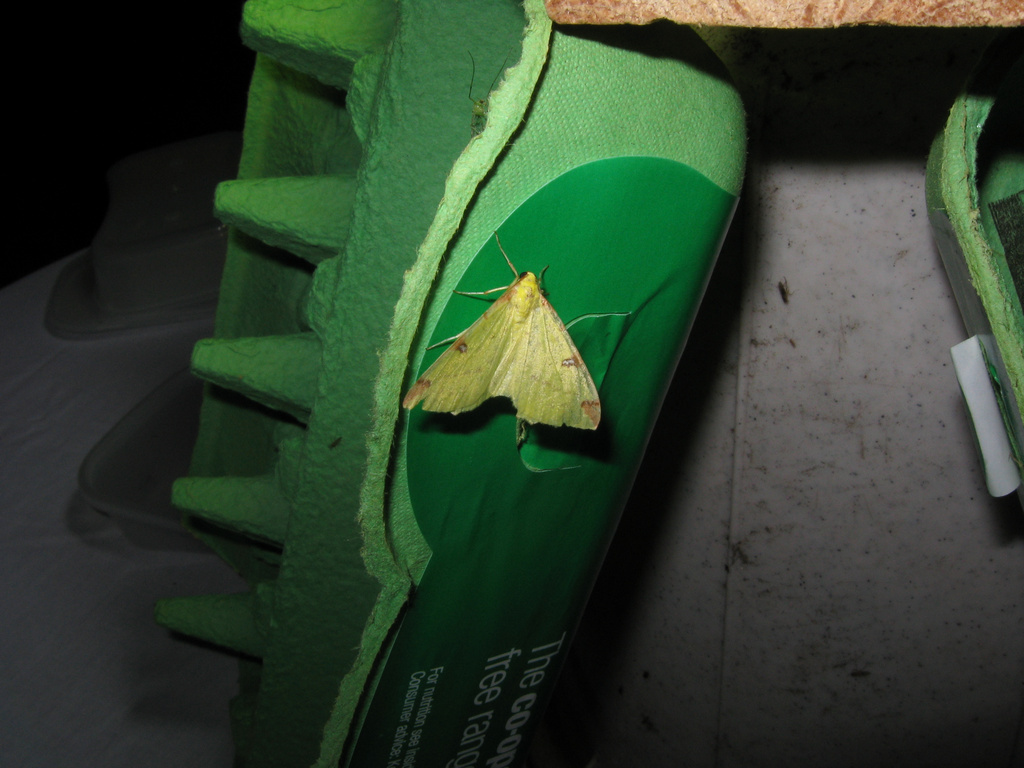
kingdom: Animalia
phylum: Arthropoda
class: Insecta
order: Lepidoptera
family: Geometridae
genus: Opisthograptis
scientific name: Opisthograptis luteolata
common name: Brimstone moth
